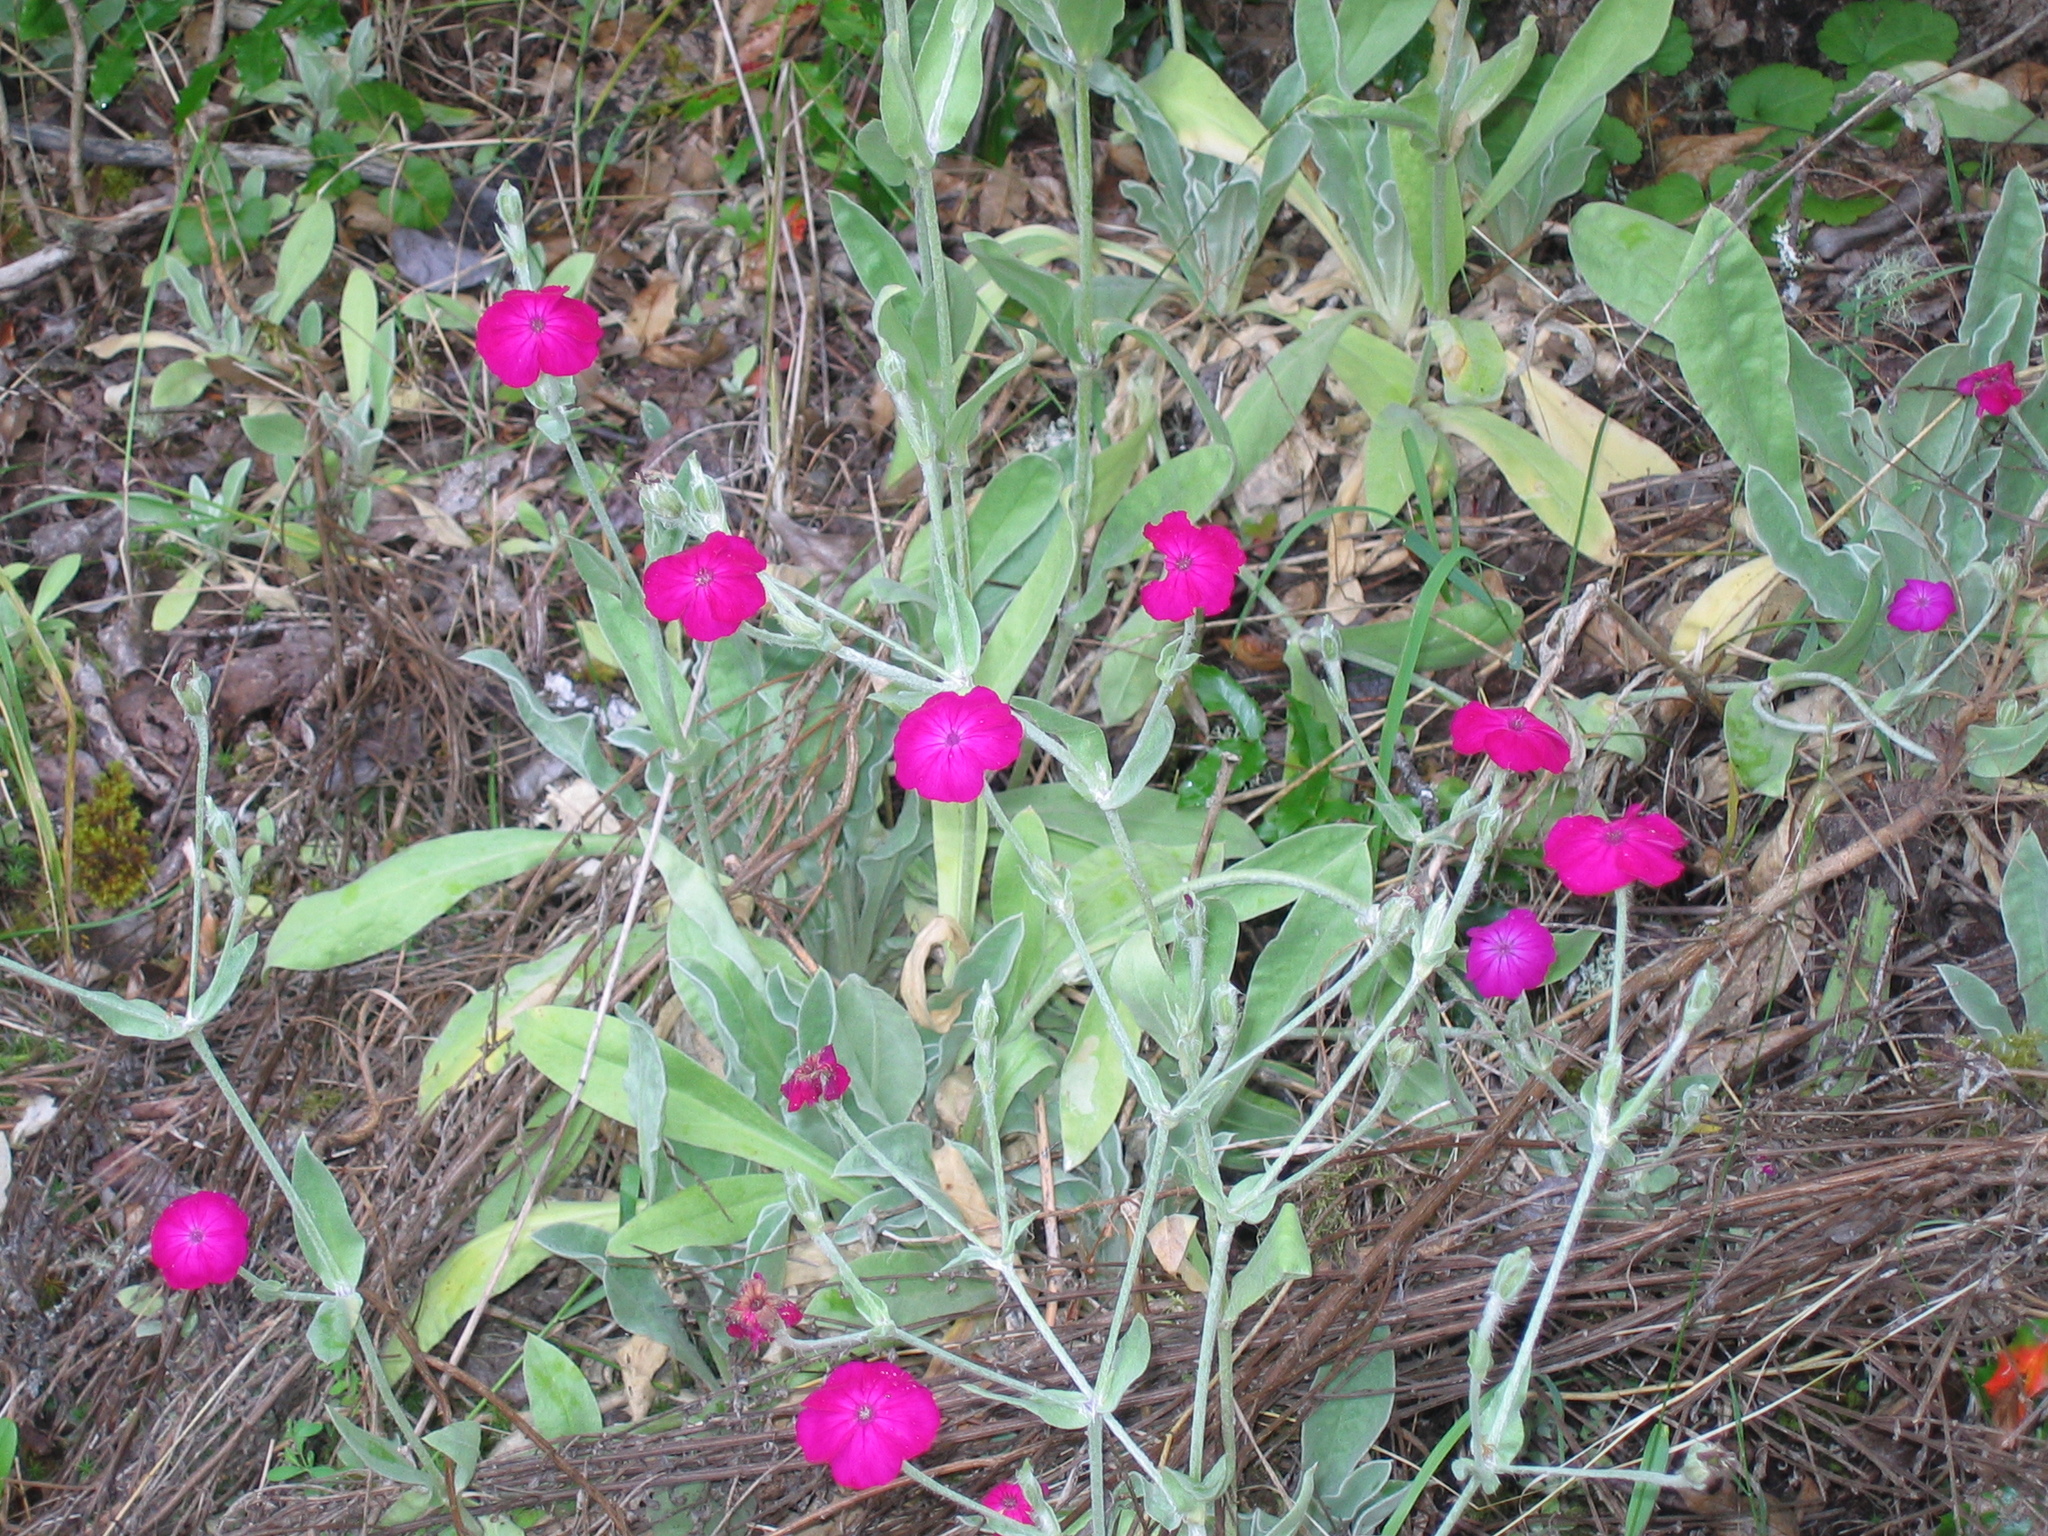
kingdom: Plantae
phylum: Tracheophyta
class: Magnoliopsida
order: Caryophyllales
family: Caryophyllaceae
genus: Silene
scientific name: Silene coronaria
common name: Rose campion
